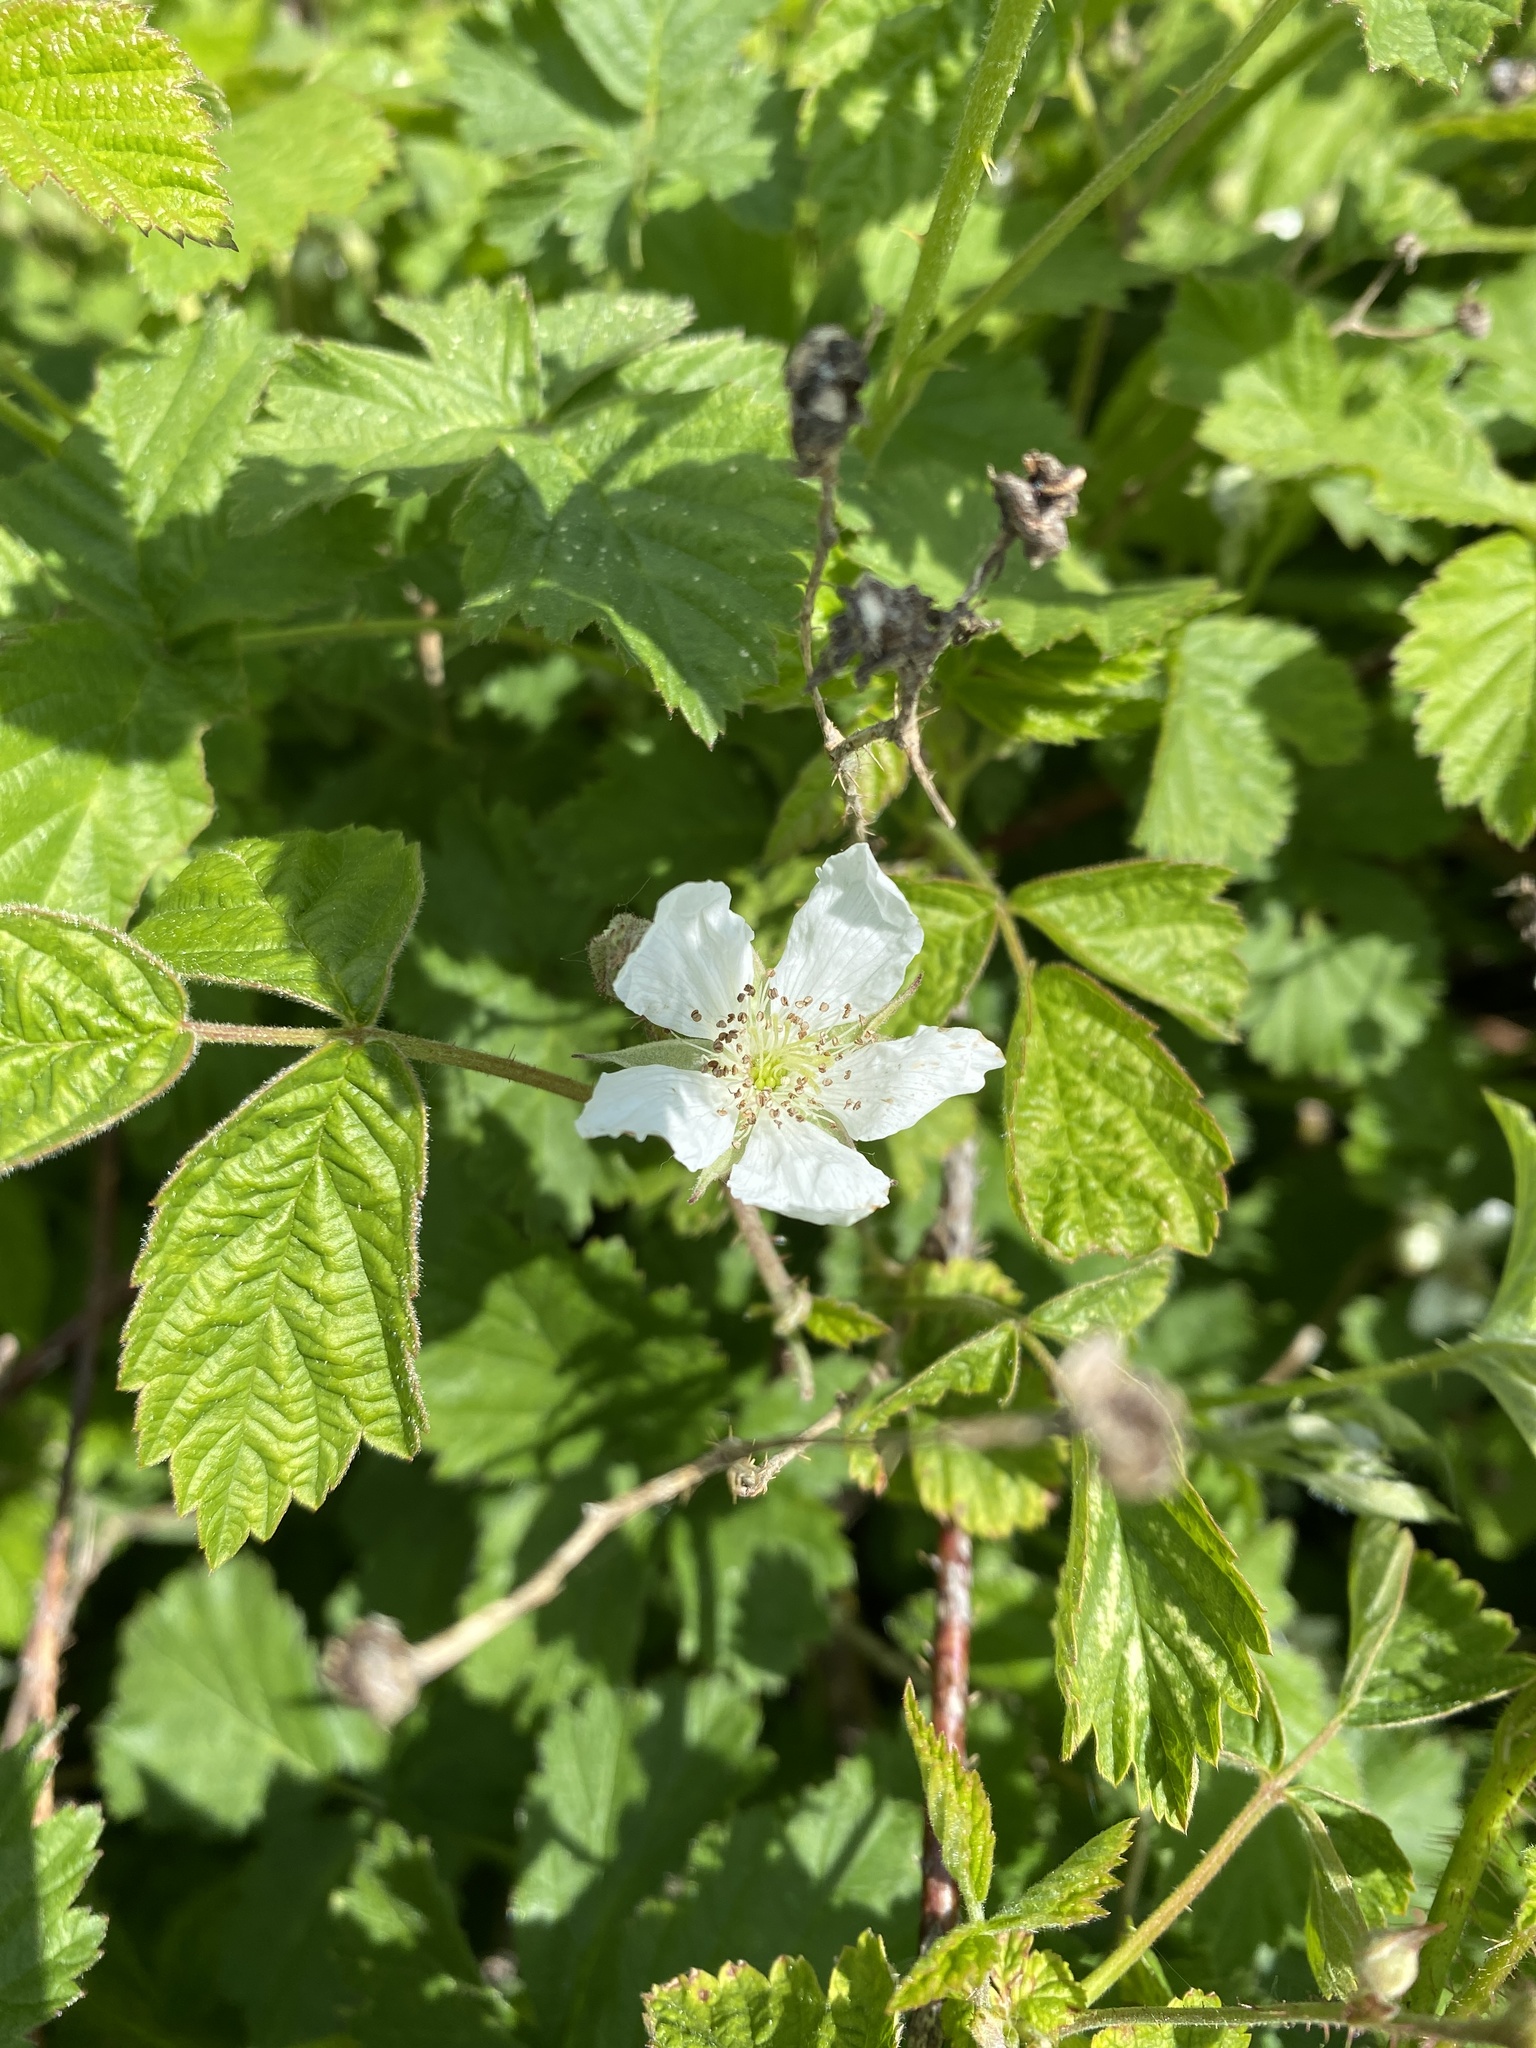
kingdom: Plantae
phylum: Tracheophyta
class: Magnoliopsida
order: Rosales
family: Rosaceae
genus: Rubus
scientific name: Rubus caesius
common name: Dewberry
